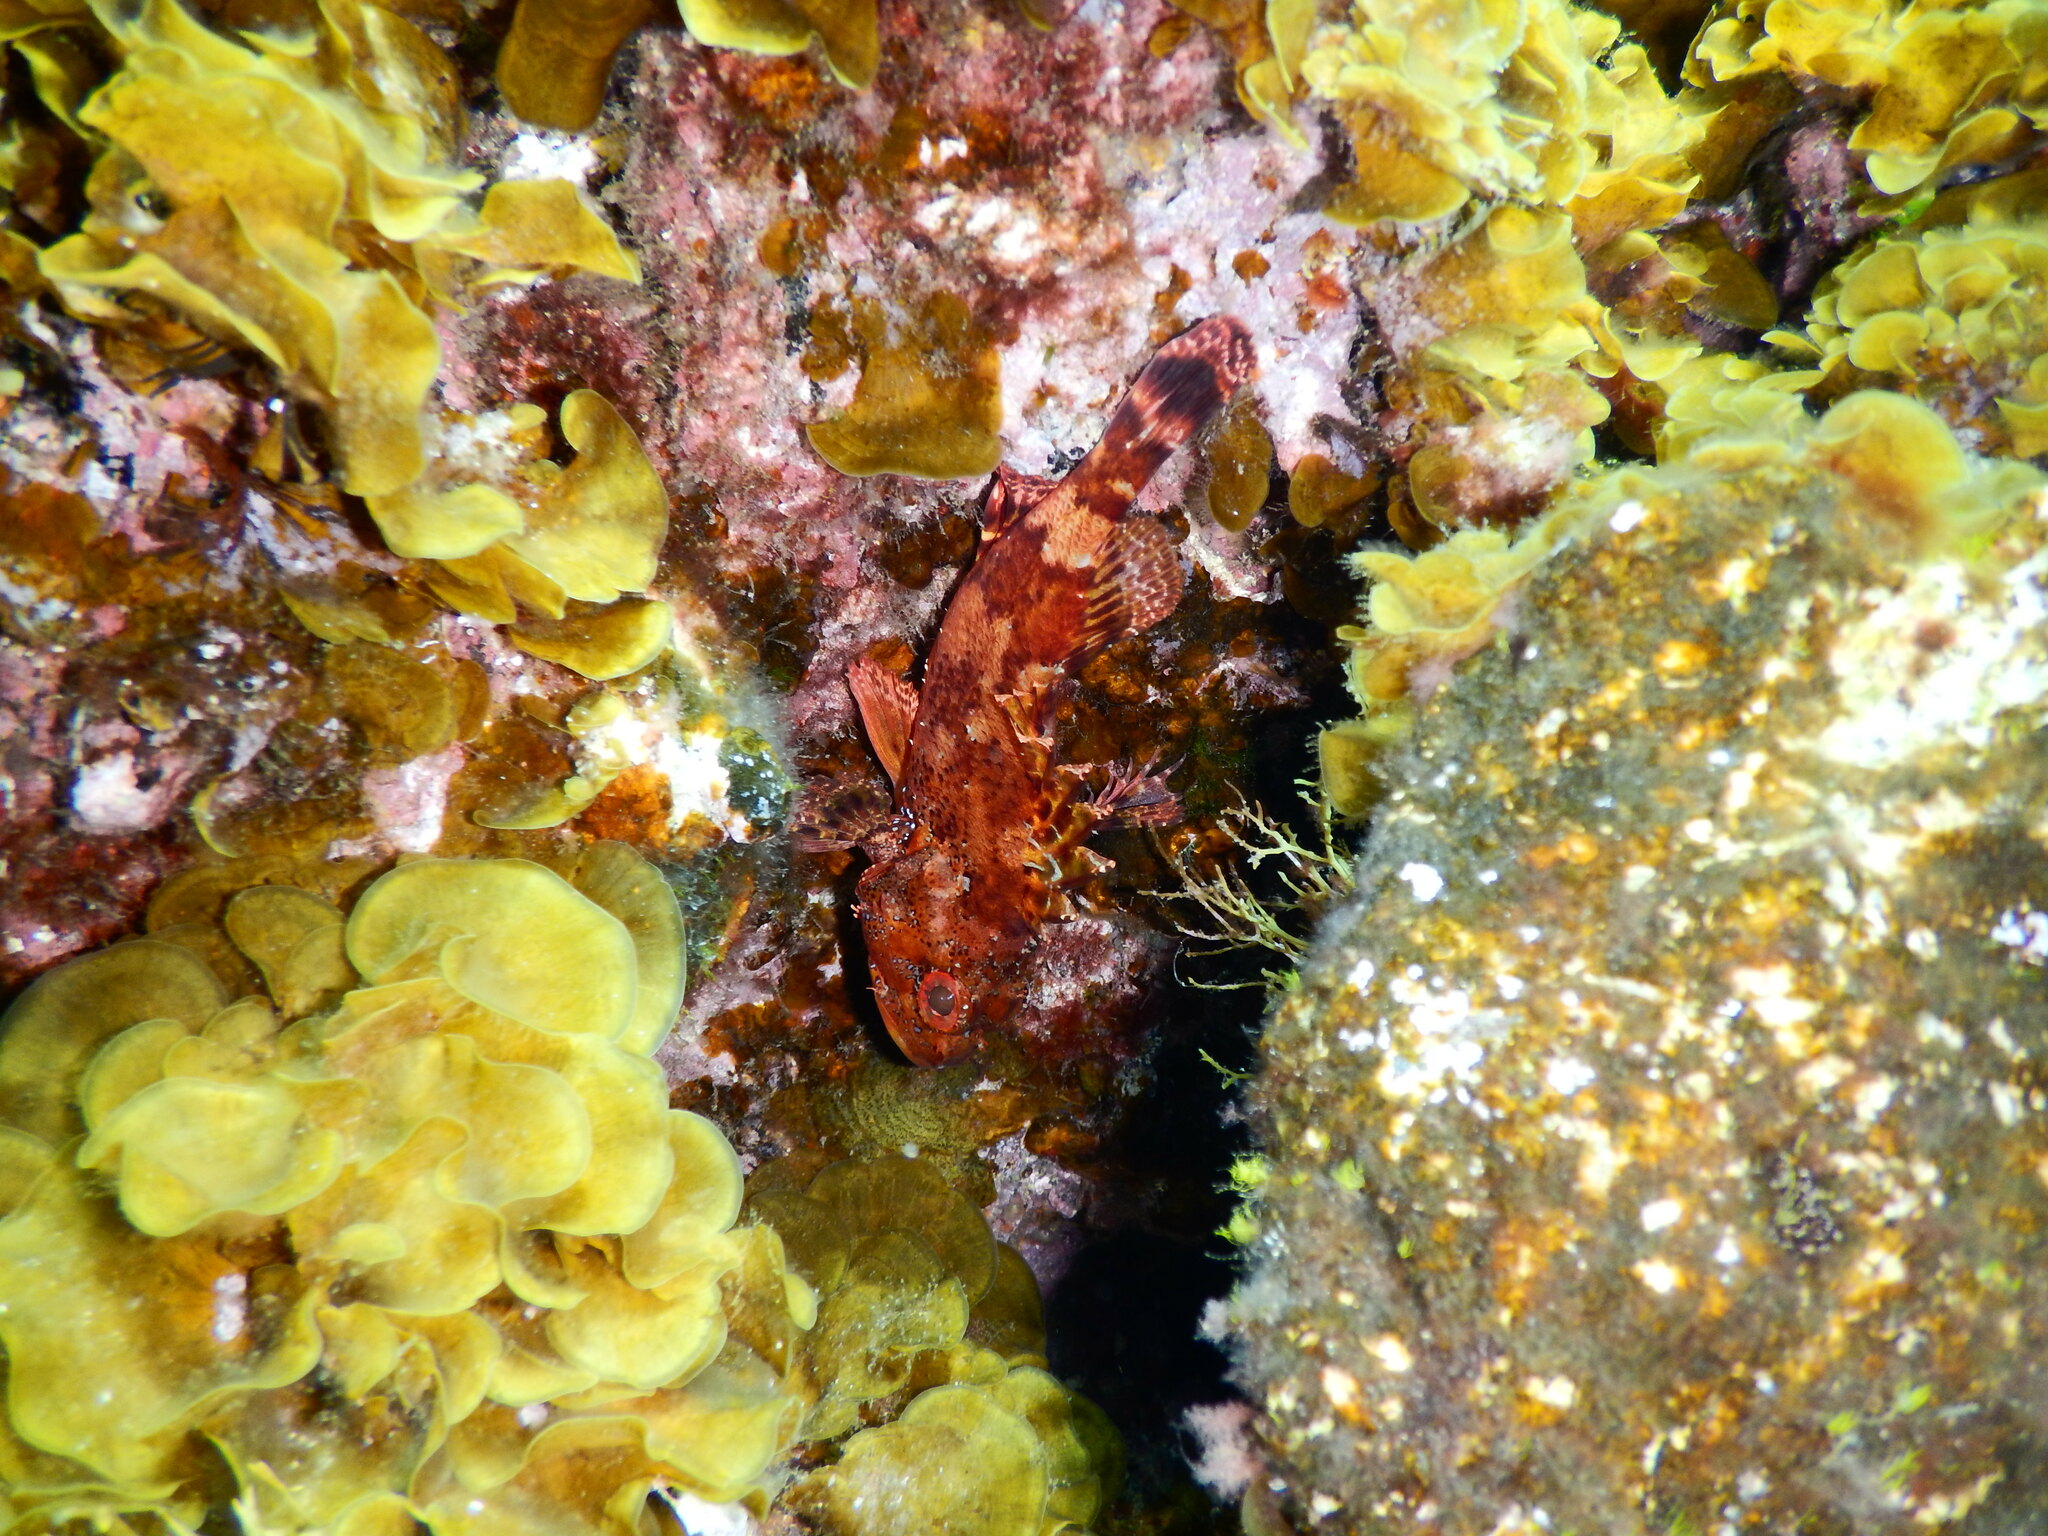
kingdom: Animalia
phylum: Chordata
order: Scorpaeniformes
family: Scorpaenidae
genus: Scorpaena
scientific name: Scorpaena maderensis
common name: Madeira rockfish
